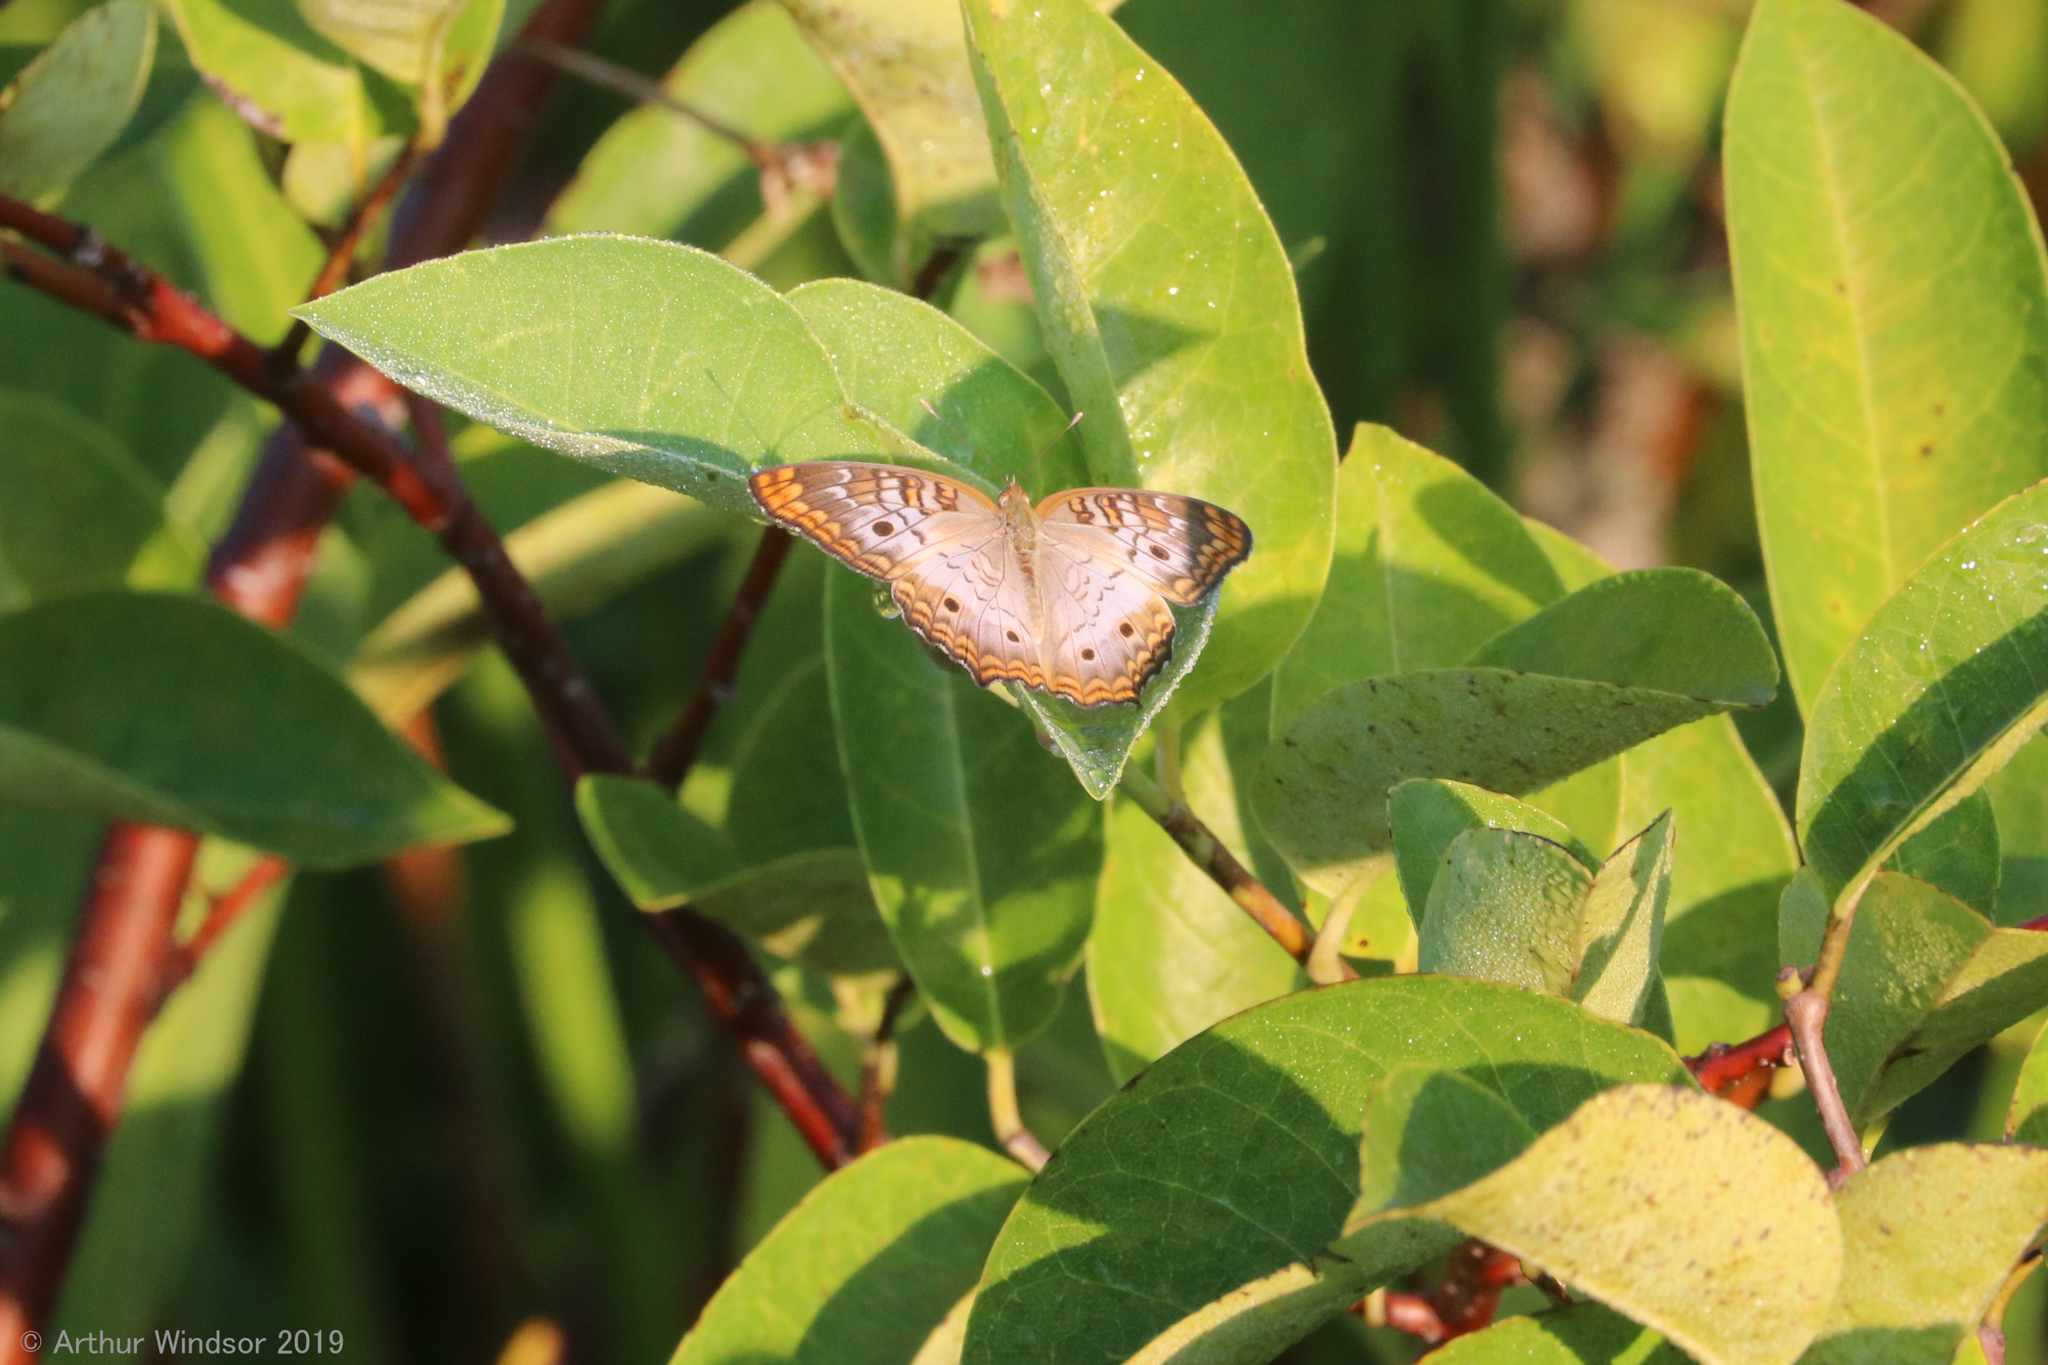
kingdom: Animalia
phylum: Arthropoda
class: Insecta
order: Lepidoptera
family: Nymphalidae
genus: Anartia
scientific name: Anartia jatrophae
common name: White peacock
